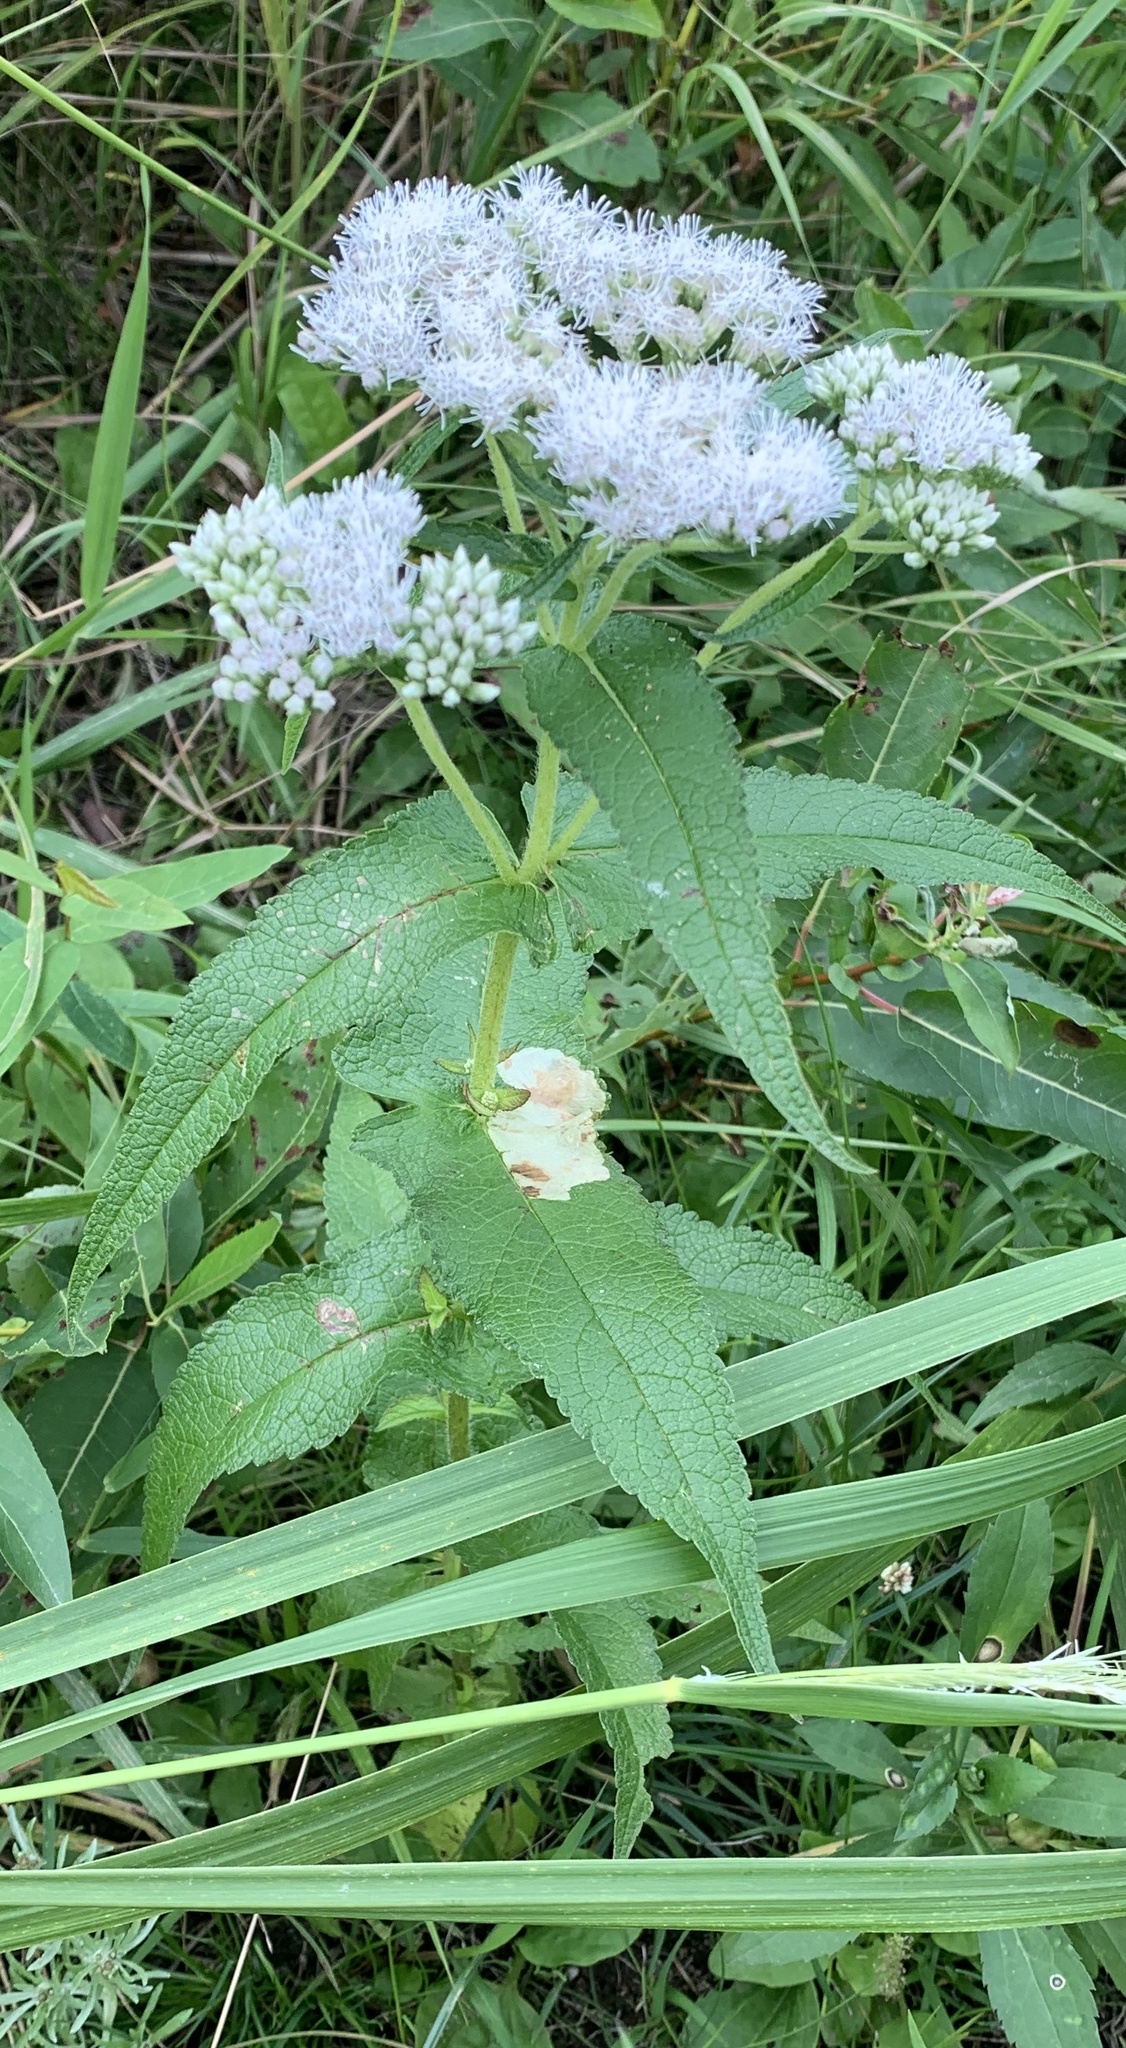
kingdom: Plantae
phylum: Tracheophyta
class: Magnoliopsida
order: Asterales
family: Asteraceae
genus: Eupatorium
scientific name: Eupatorium perfoliatum
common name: Boneset
